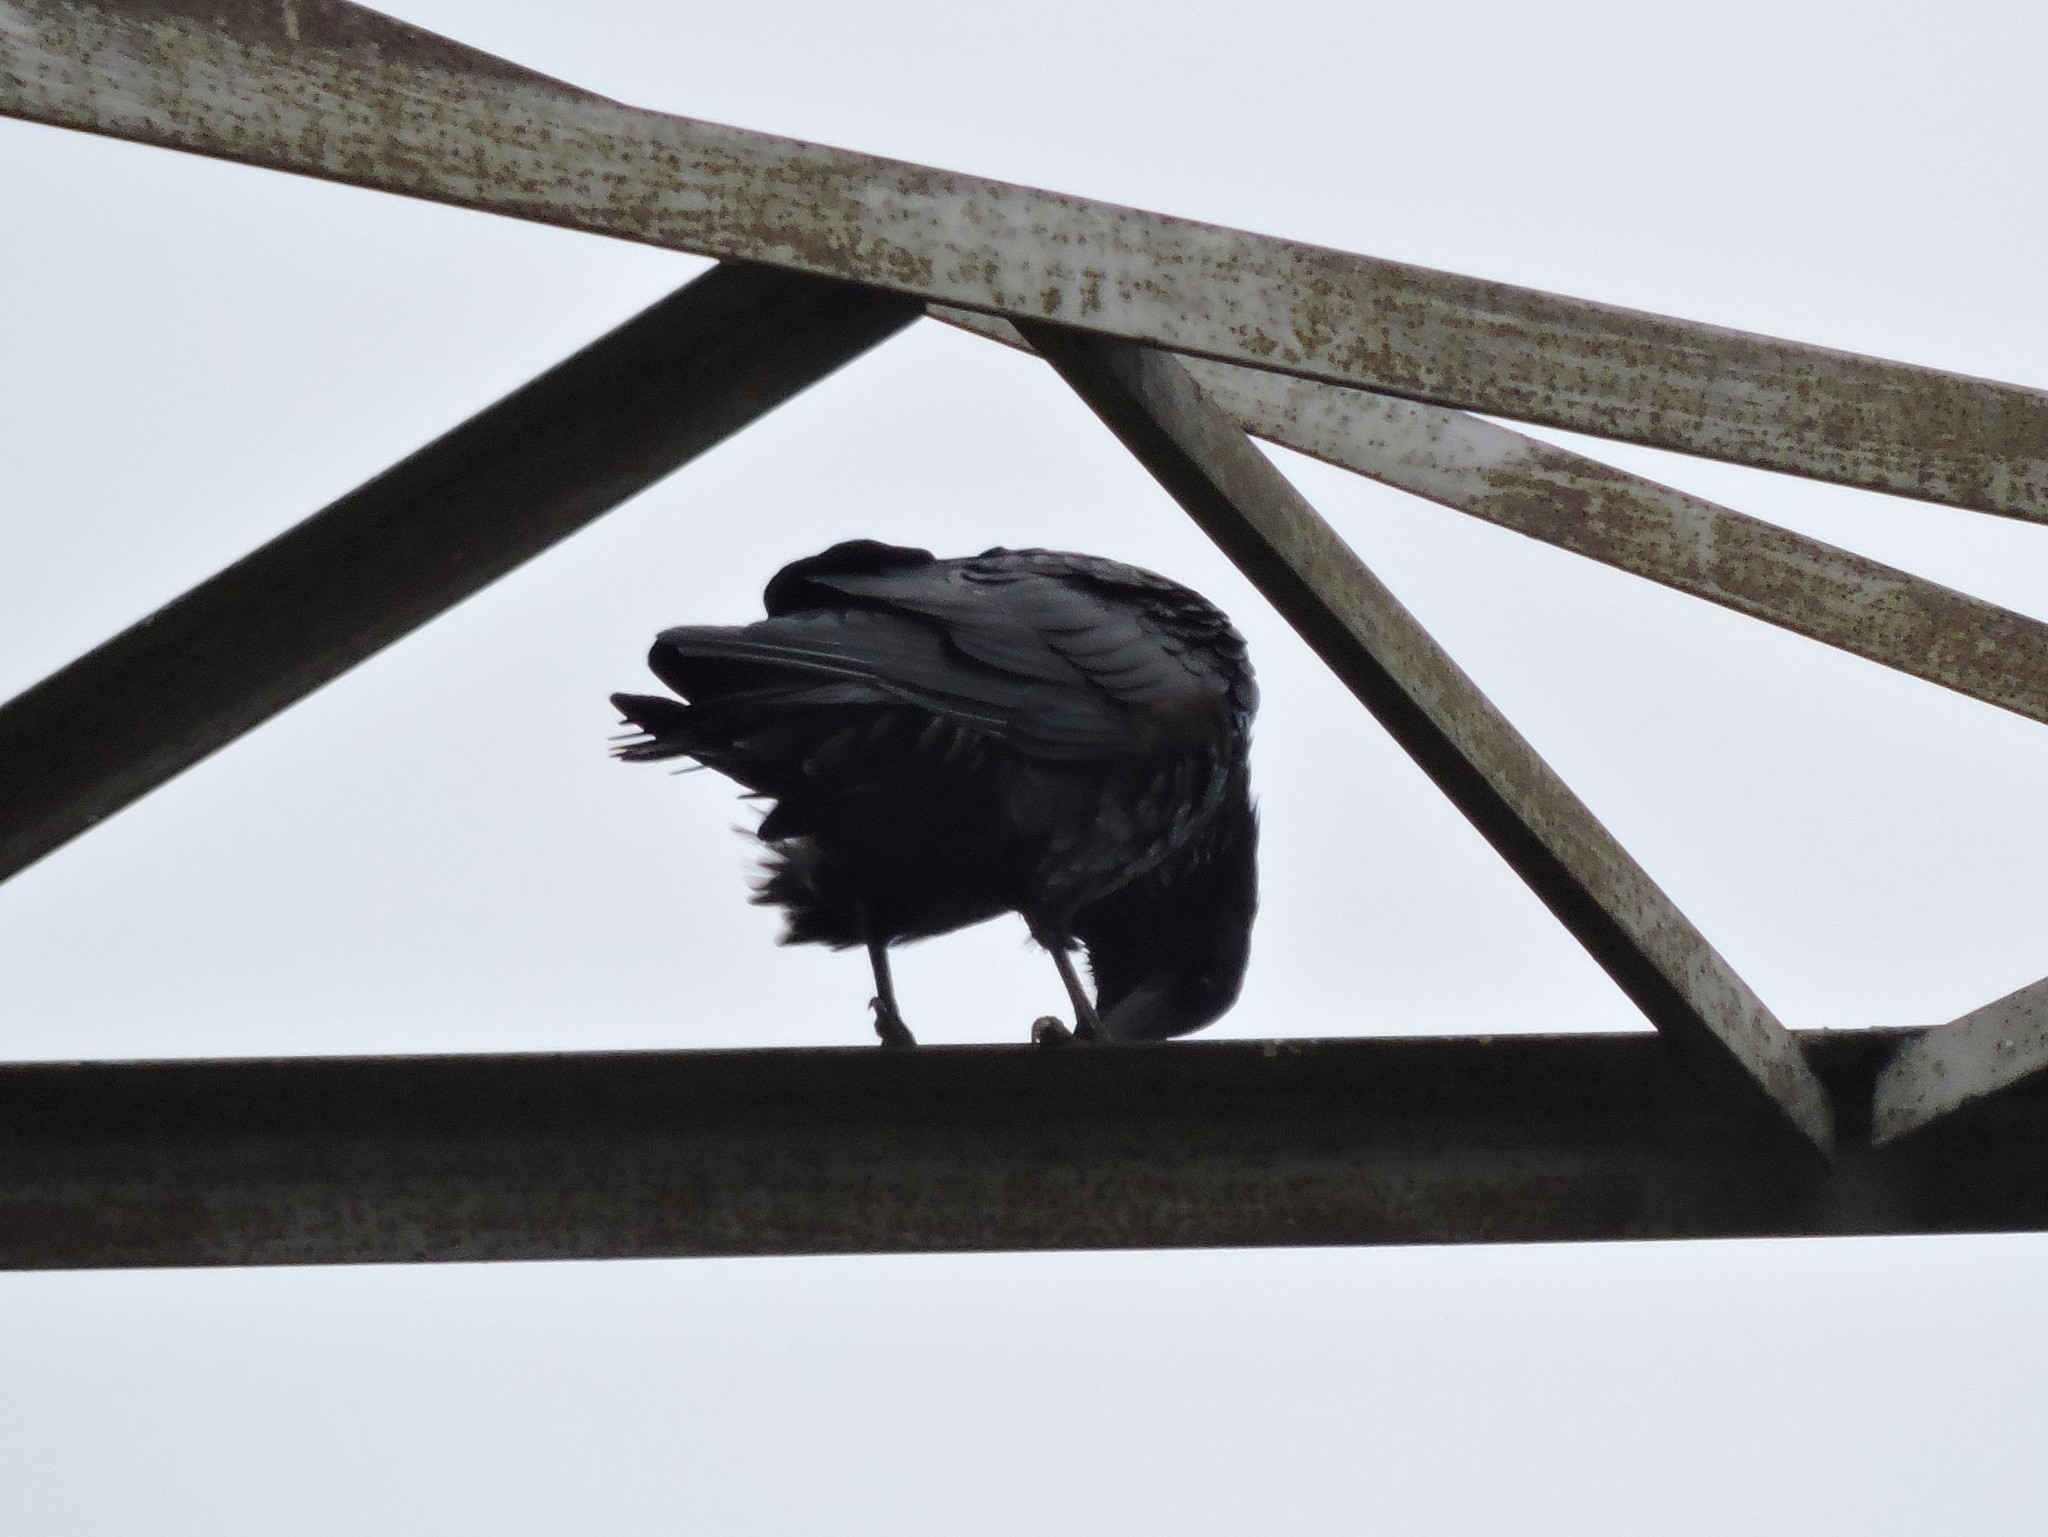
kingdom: Animalia
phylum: Chordata
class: Aves
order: Passeriformes
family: Corvidae
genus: Corvus
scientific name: Corvus corax
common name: Common raven
